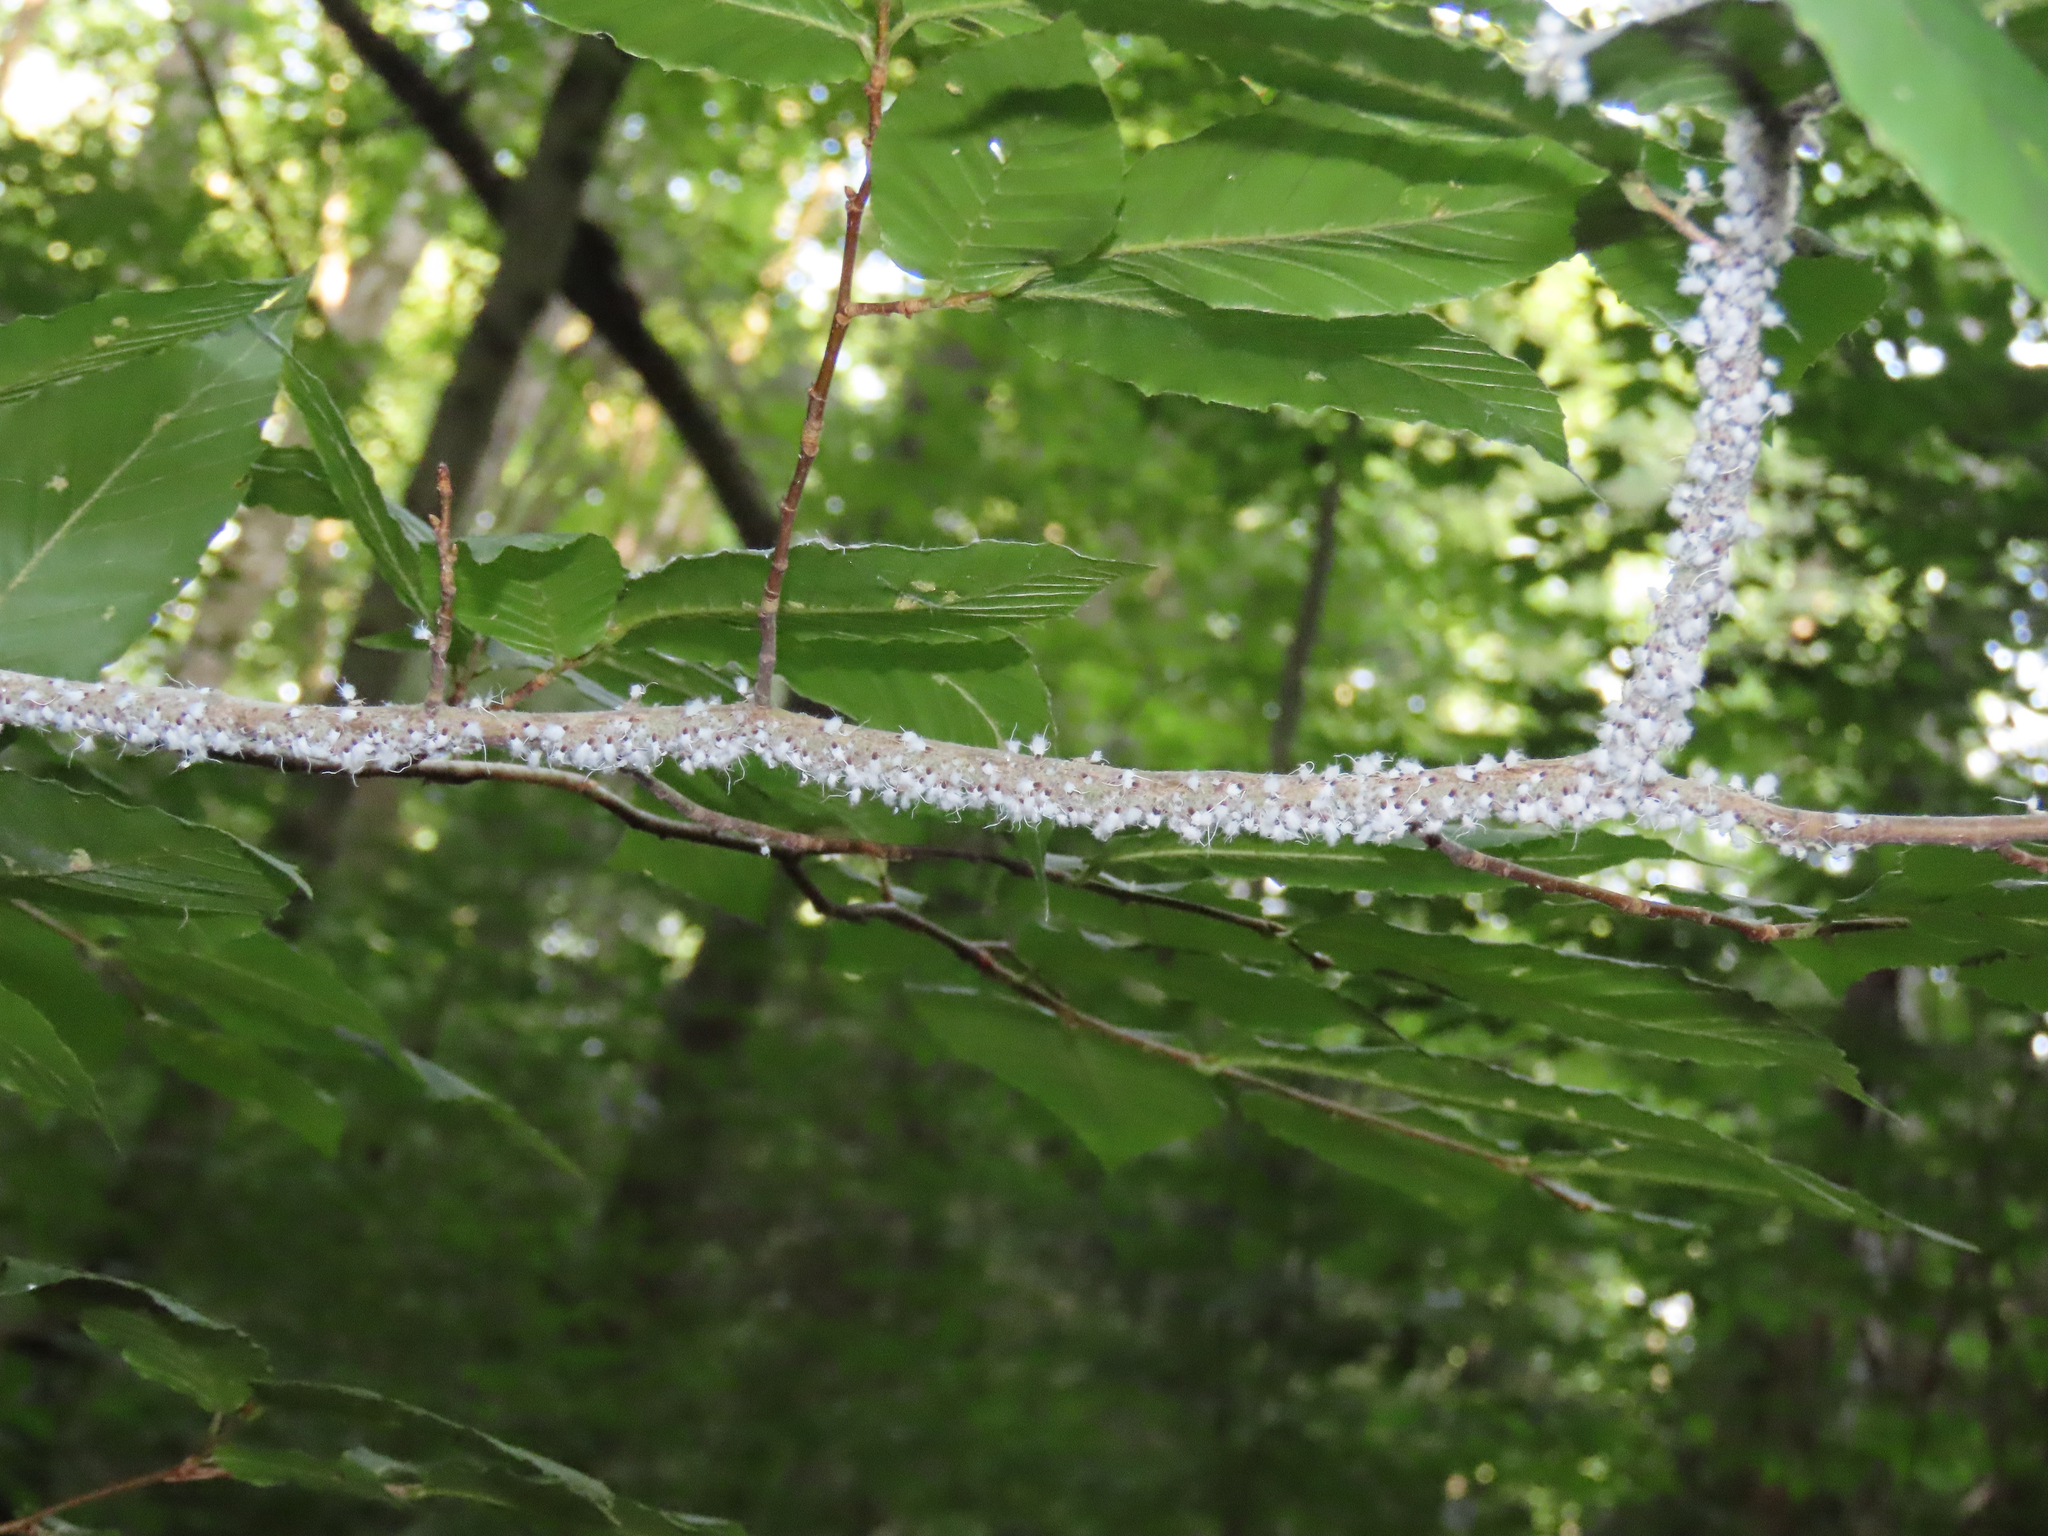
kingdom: Animalia
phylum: Arthropoda
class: Insecta
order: Hemiptera
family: Aphididae
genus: Grylloprociphilus
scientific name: Grylloprociphilus imbricator
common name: Beech blight aphid
